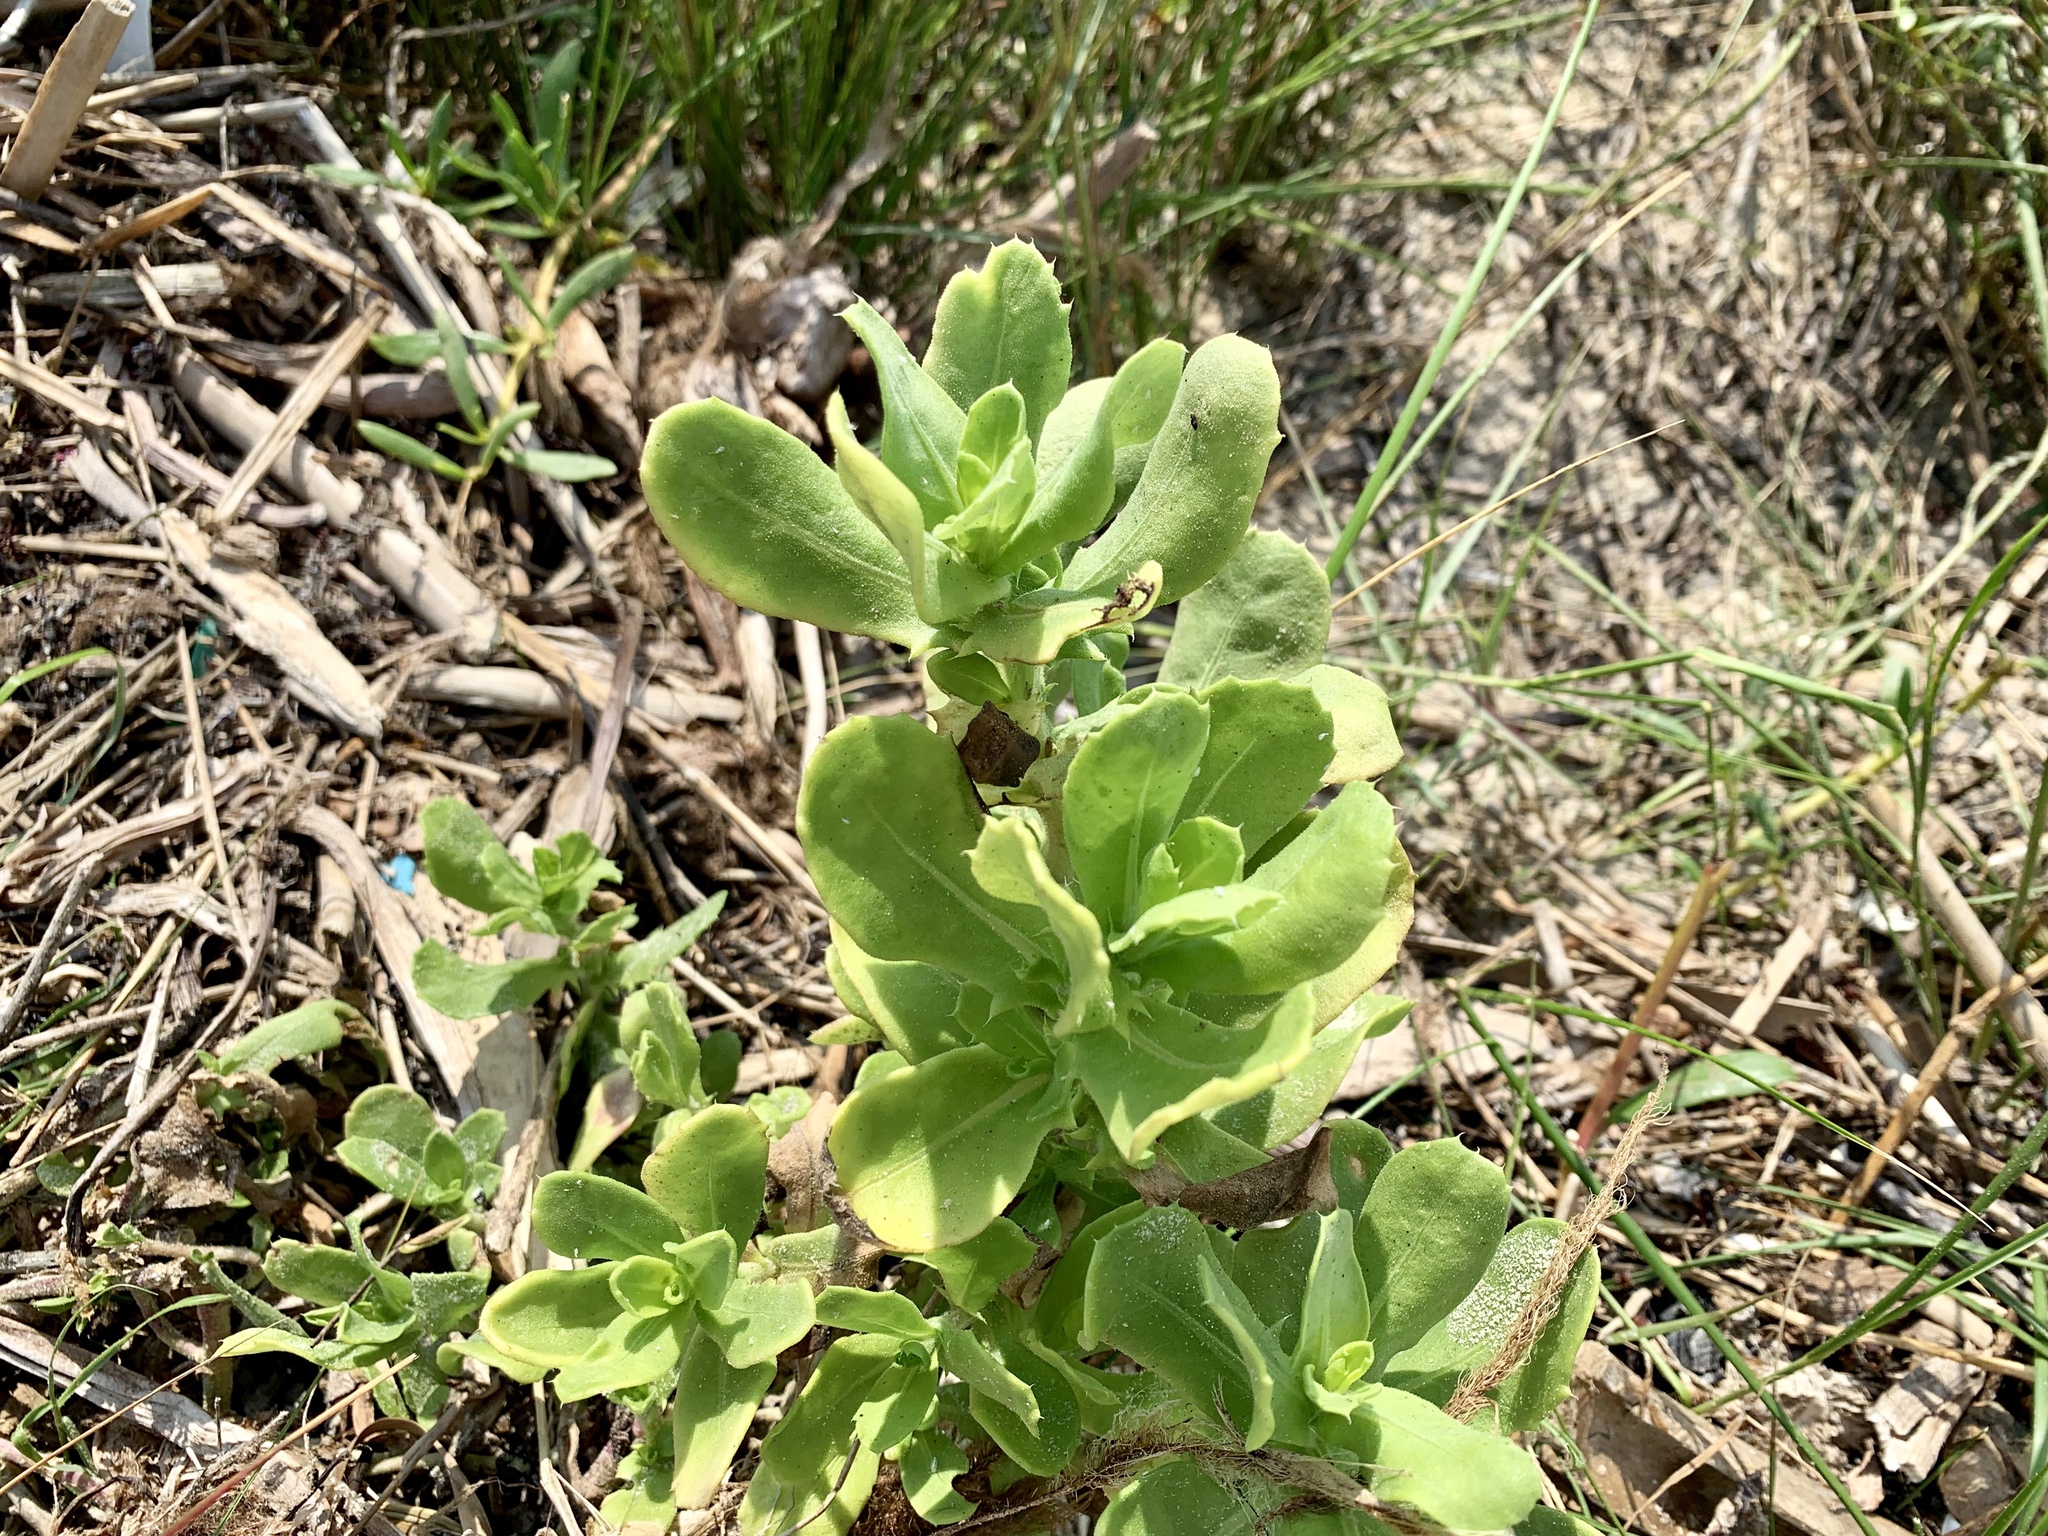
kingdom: Plantae
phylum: Tracheophyta
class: Magnoliopsida
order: Asterales
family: Asteraceae
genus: Rayjacksonia
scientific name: Rayjacksonia phyllocephala
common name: Gulf coast camphor daisy
